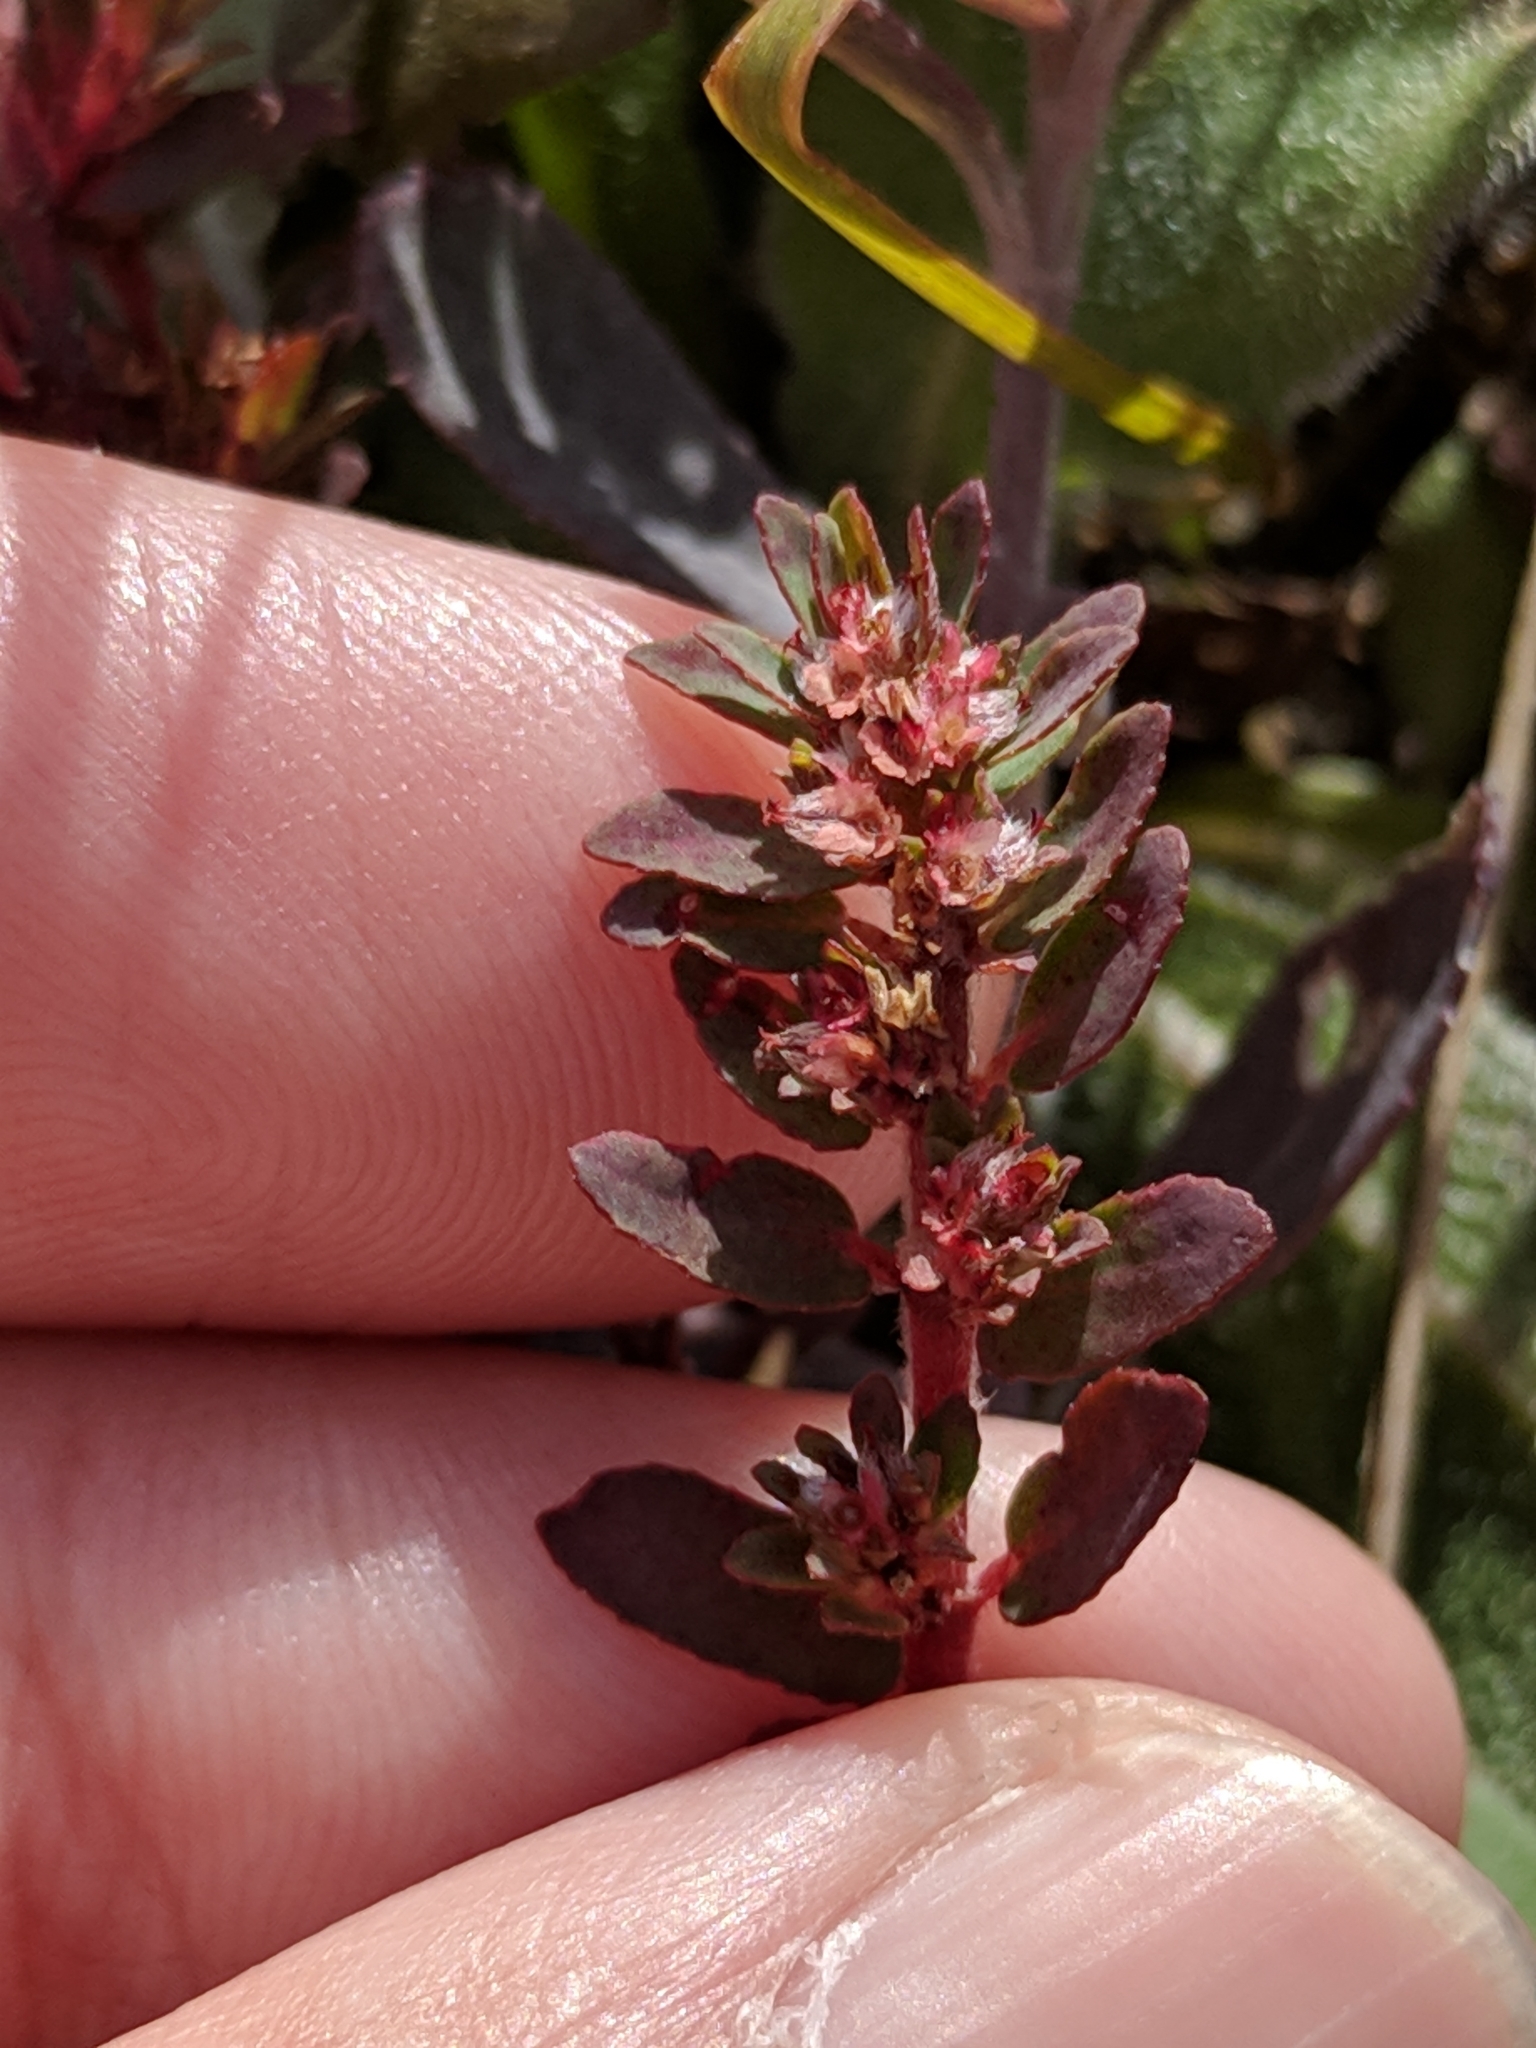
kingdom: Plantae
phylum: Tracheophyta
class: Magnoliopsida
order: Malpighiales
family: Euphorbiaceae
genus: Euphorbia
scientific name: Euphorbia conferta
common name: Everglade key sandmat
